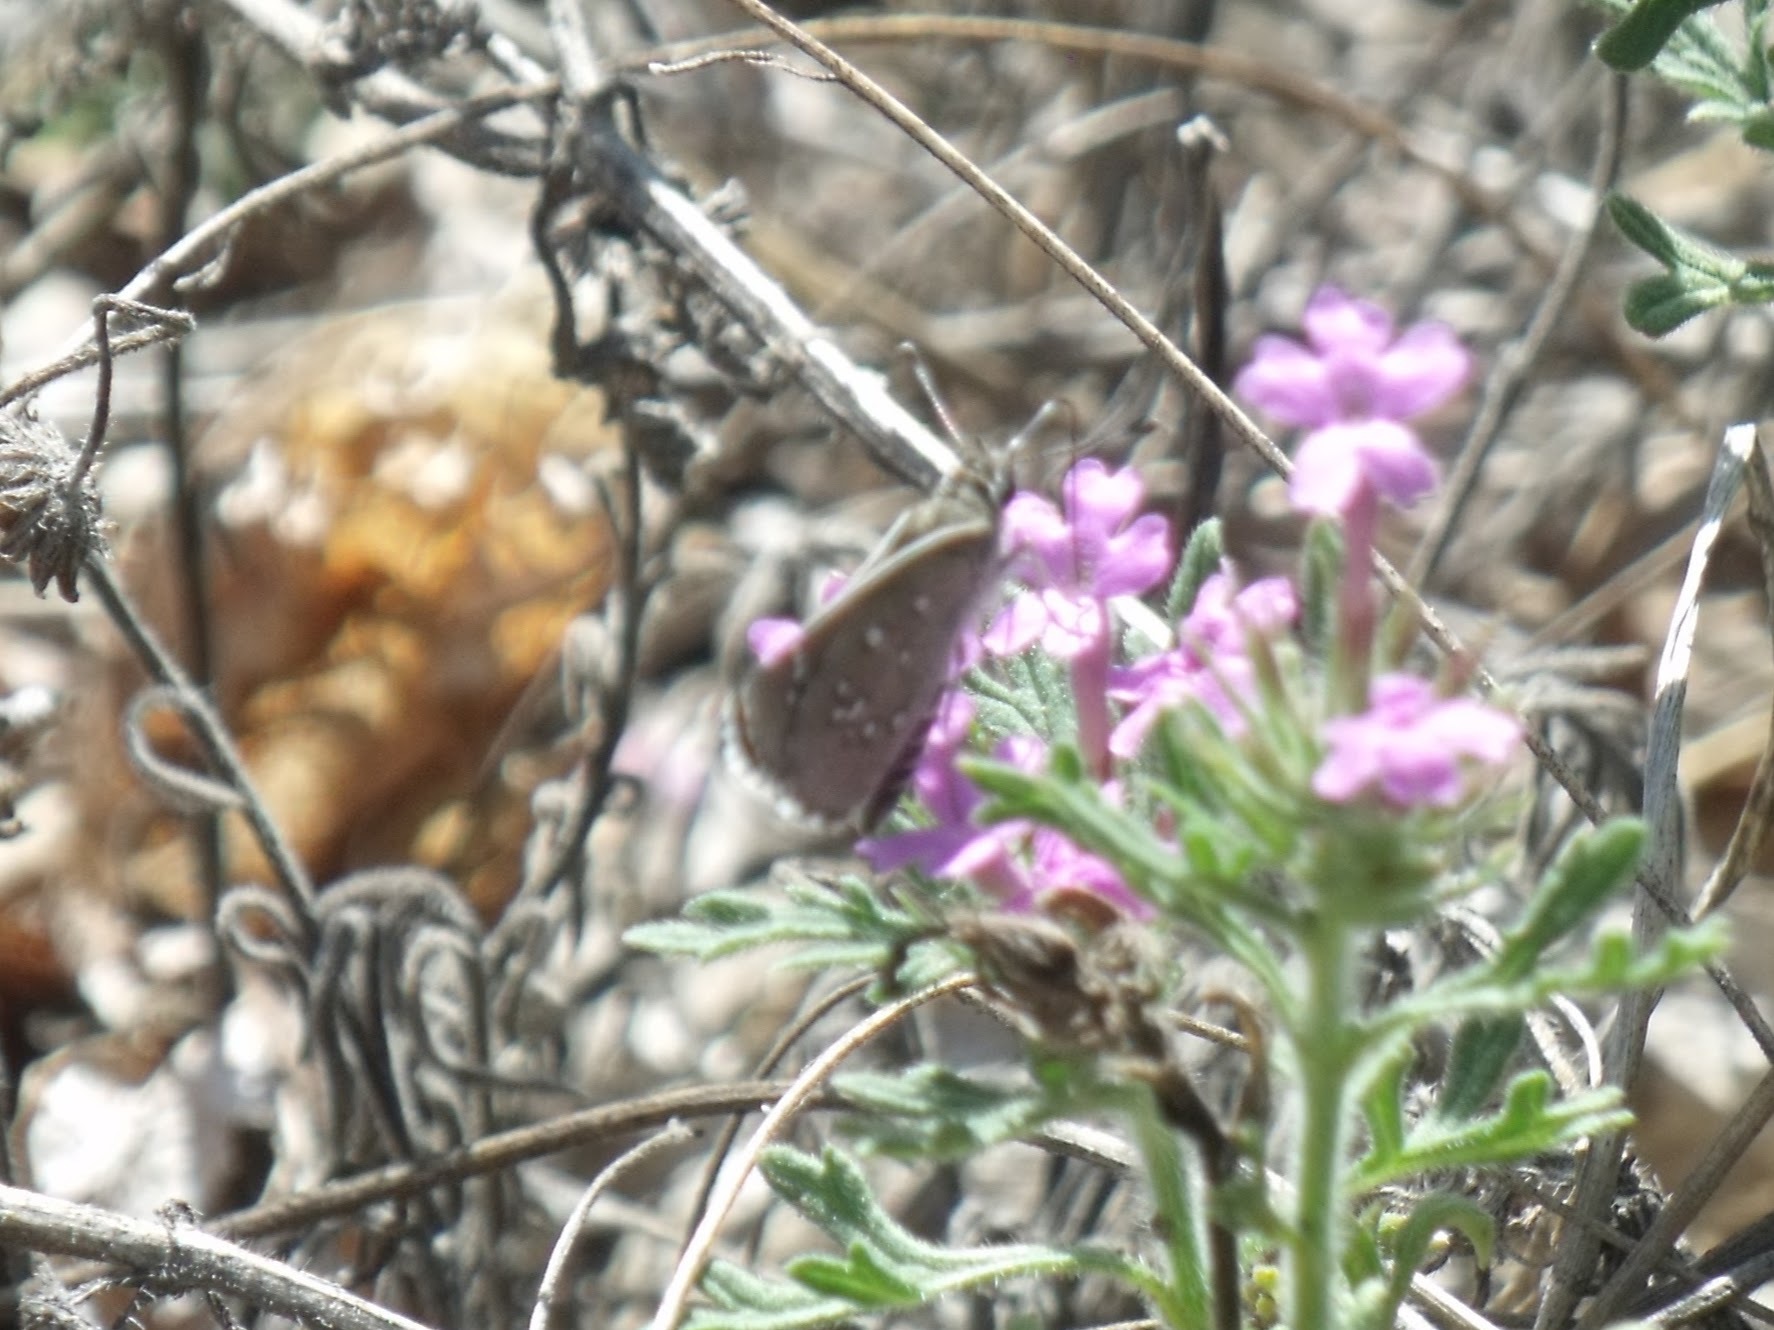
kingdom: Animalia
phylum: Arthropoda
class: Insecta
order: Lepidoptera
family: Hesperiidae
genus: Mastor
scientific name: Mastor eos
